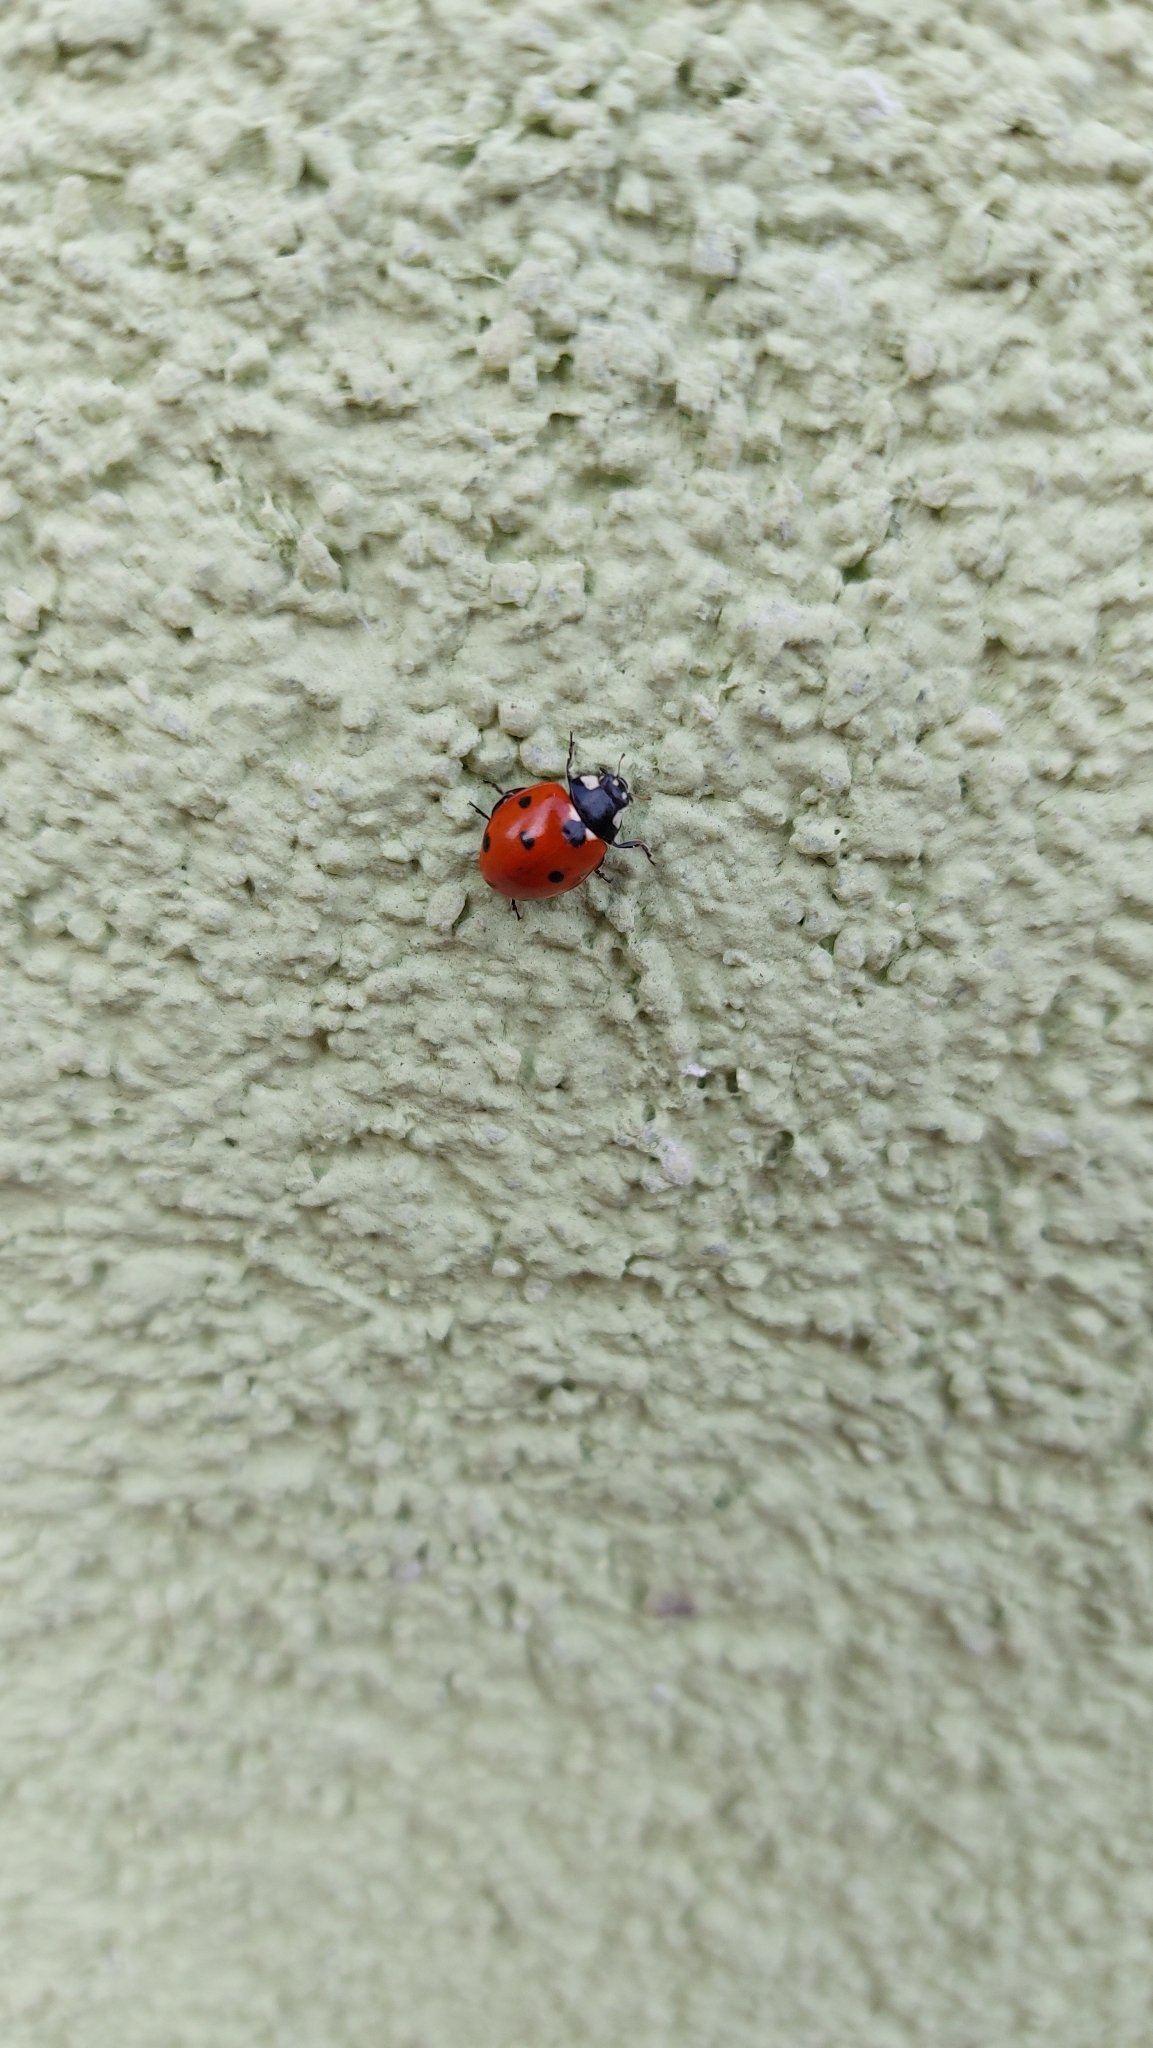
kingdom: Animalia
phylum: Arthropoda
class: Insecta
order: Coleoptera
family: Coccinellidae
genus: Coccinella
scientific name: Coccinella septempunctata
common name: Sevenspotted lady beetle
